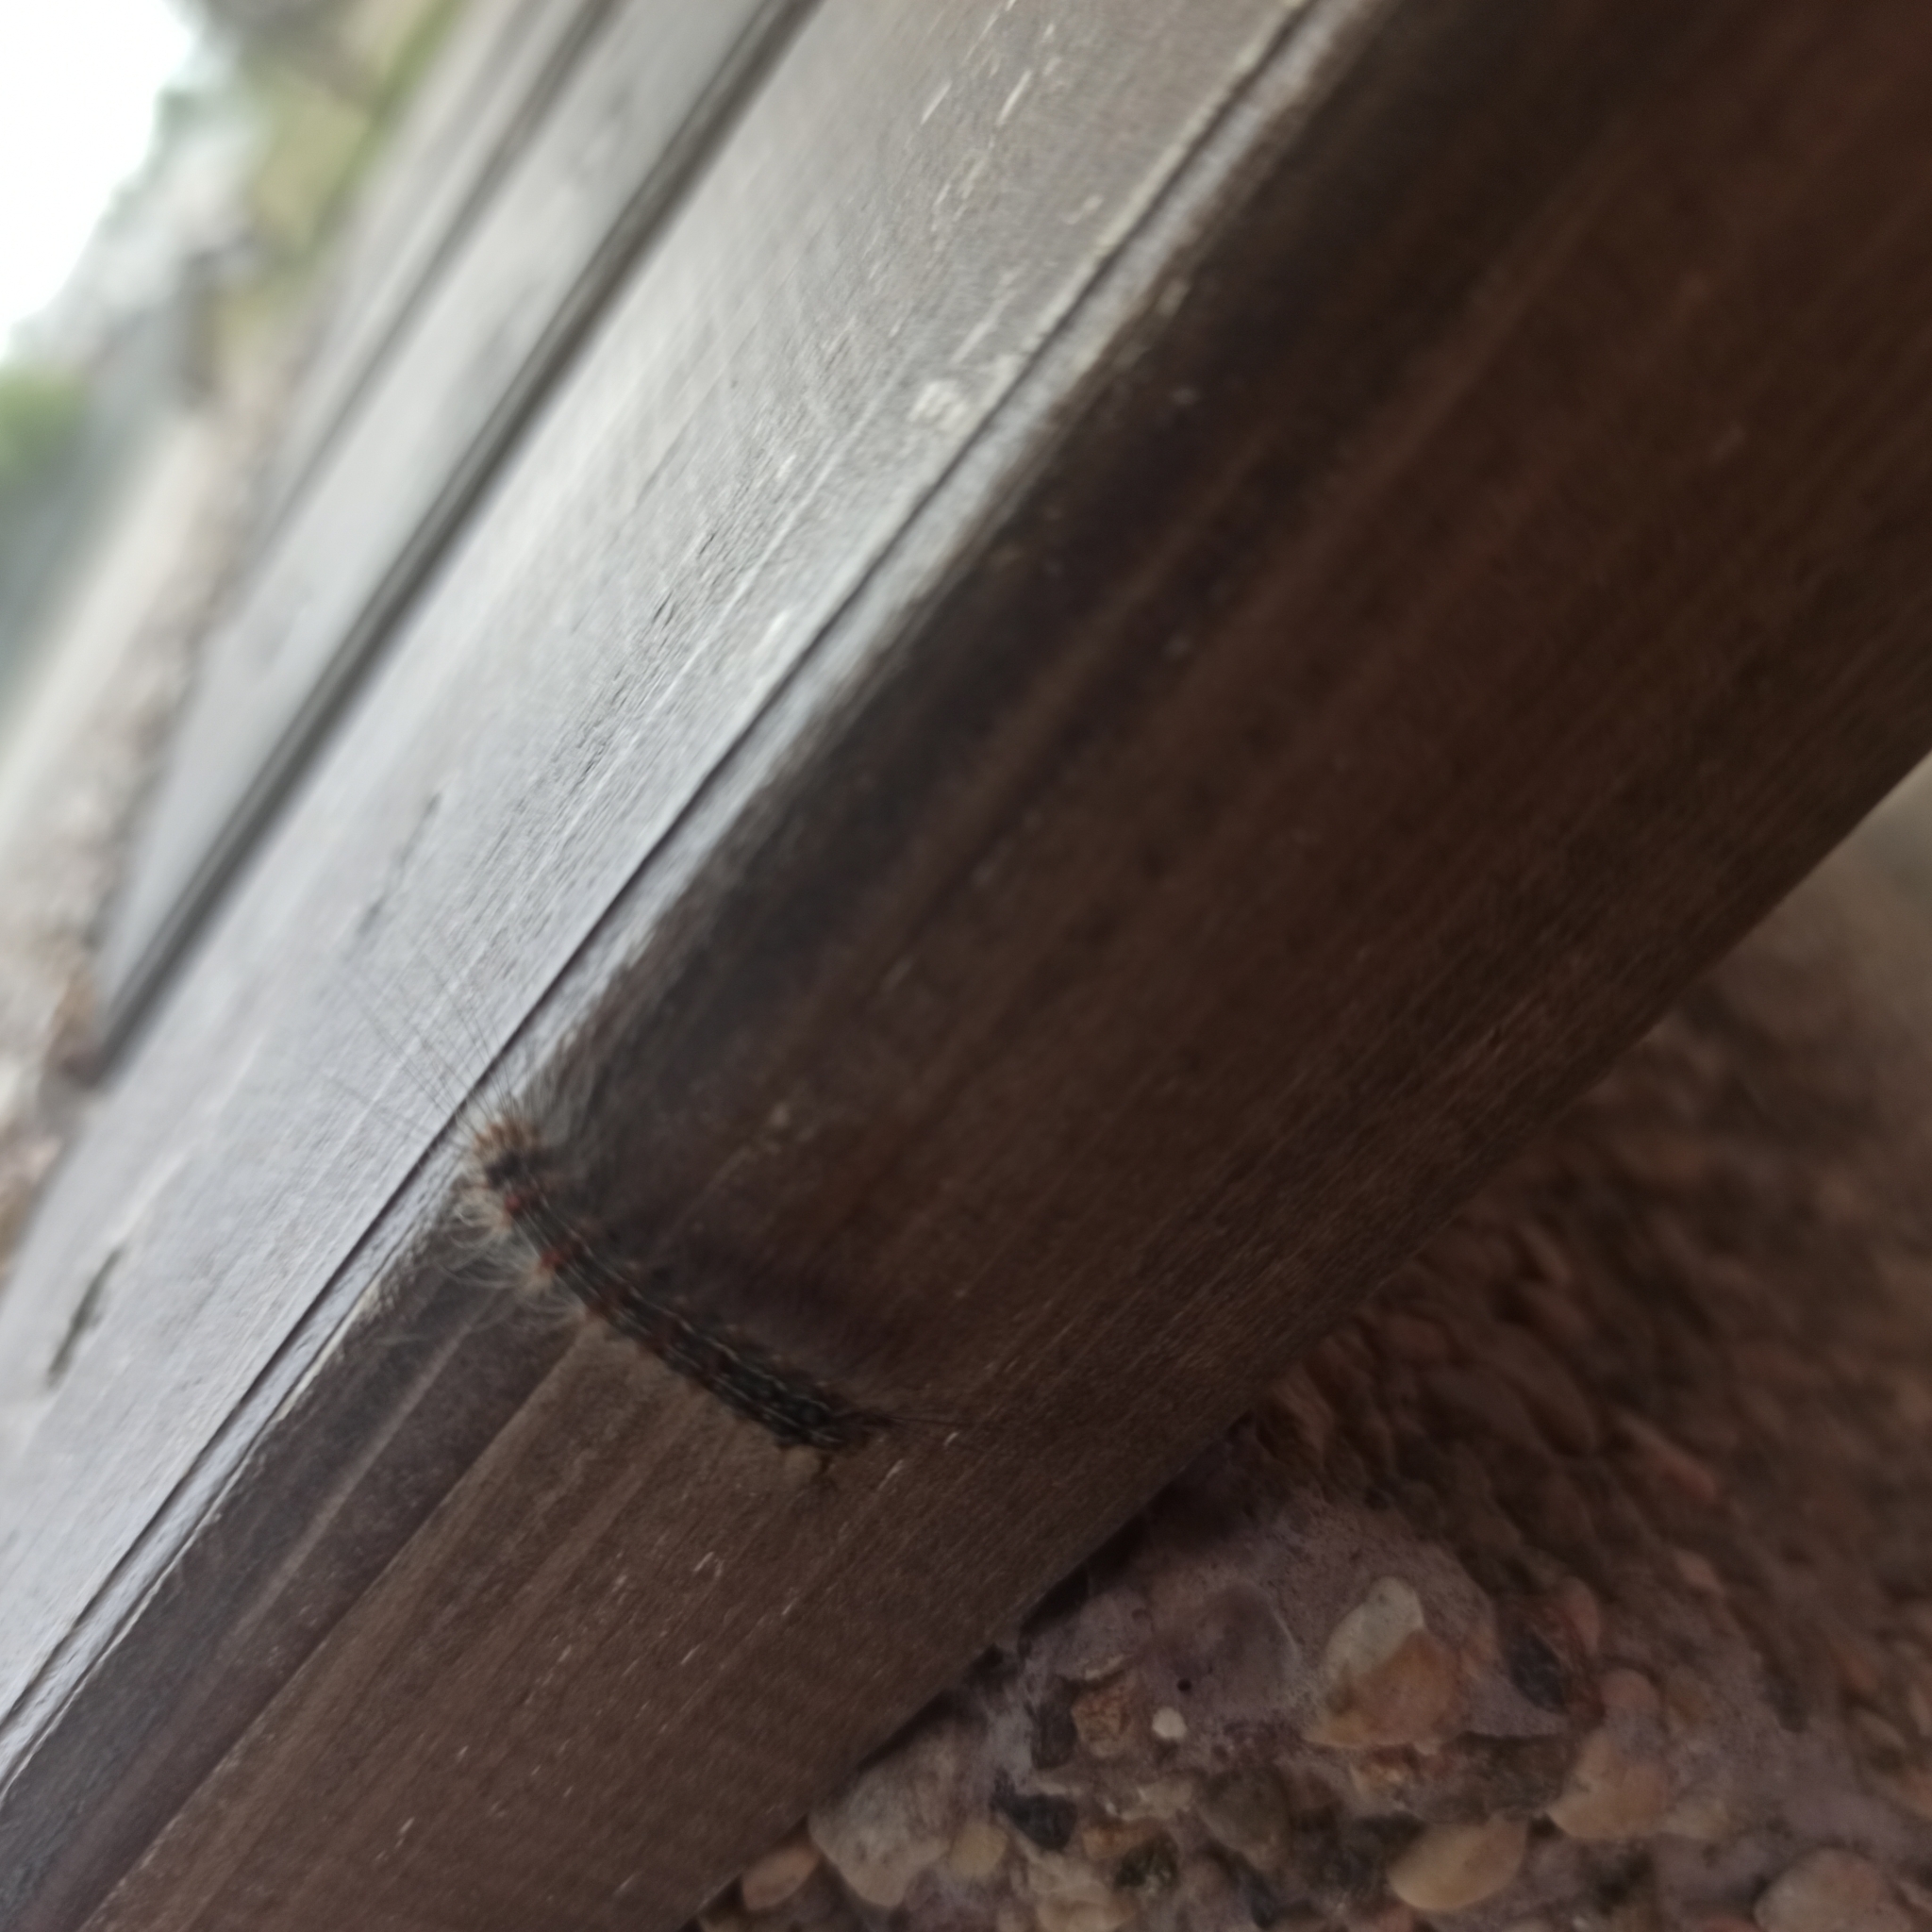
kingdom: Animalia
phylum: Arthropoda
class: Insecta
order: Lepidoptera
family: Erebidae
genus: Lymantria
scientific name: Lymantria dispar
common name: Gypsy moth
